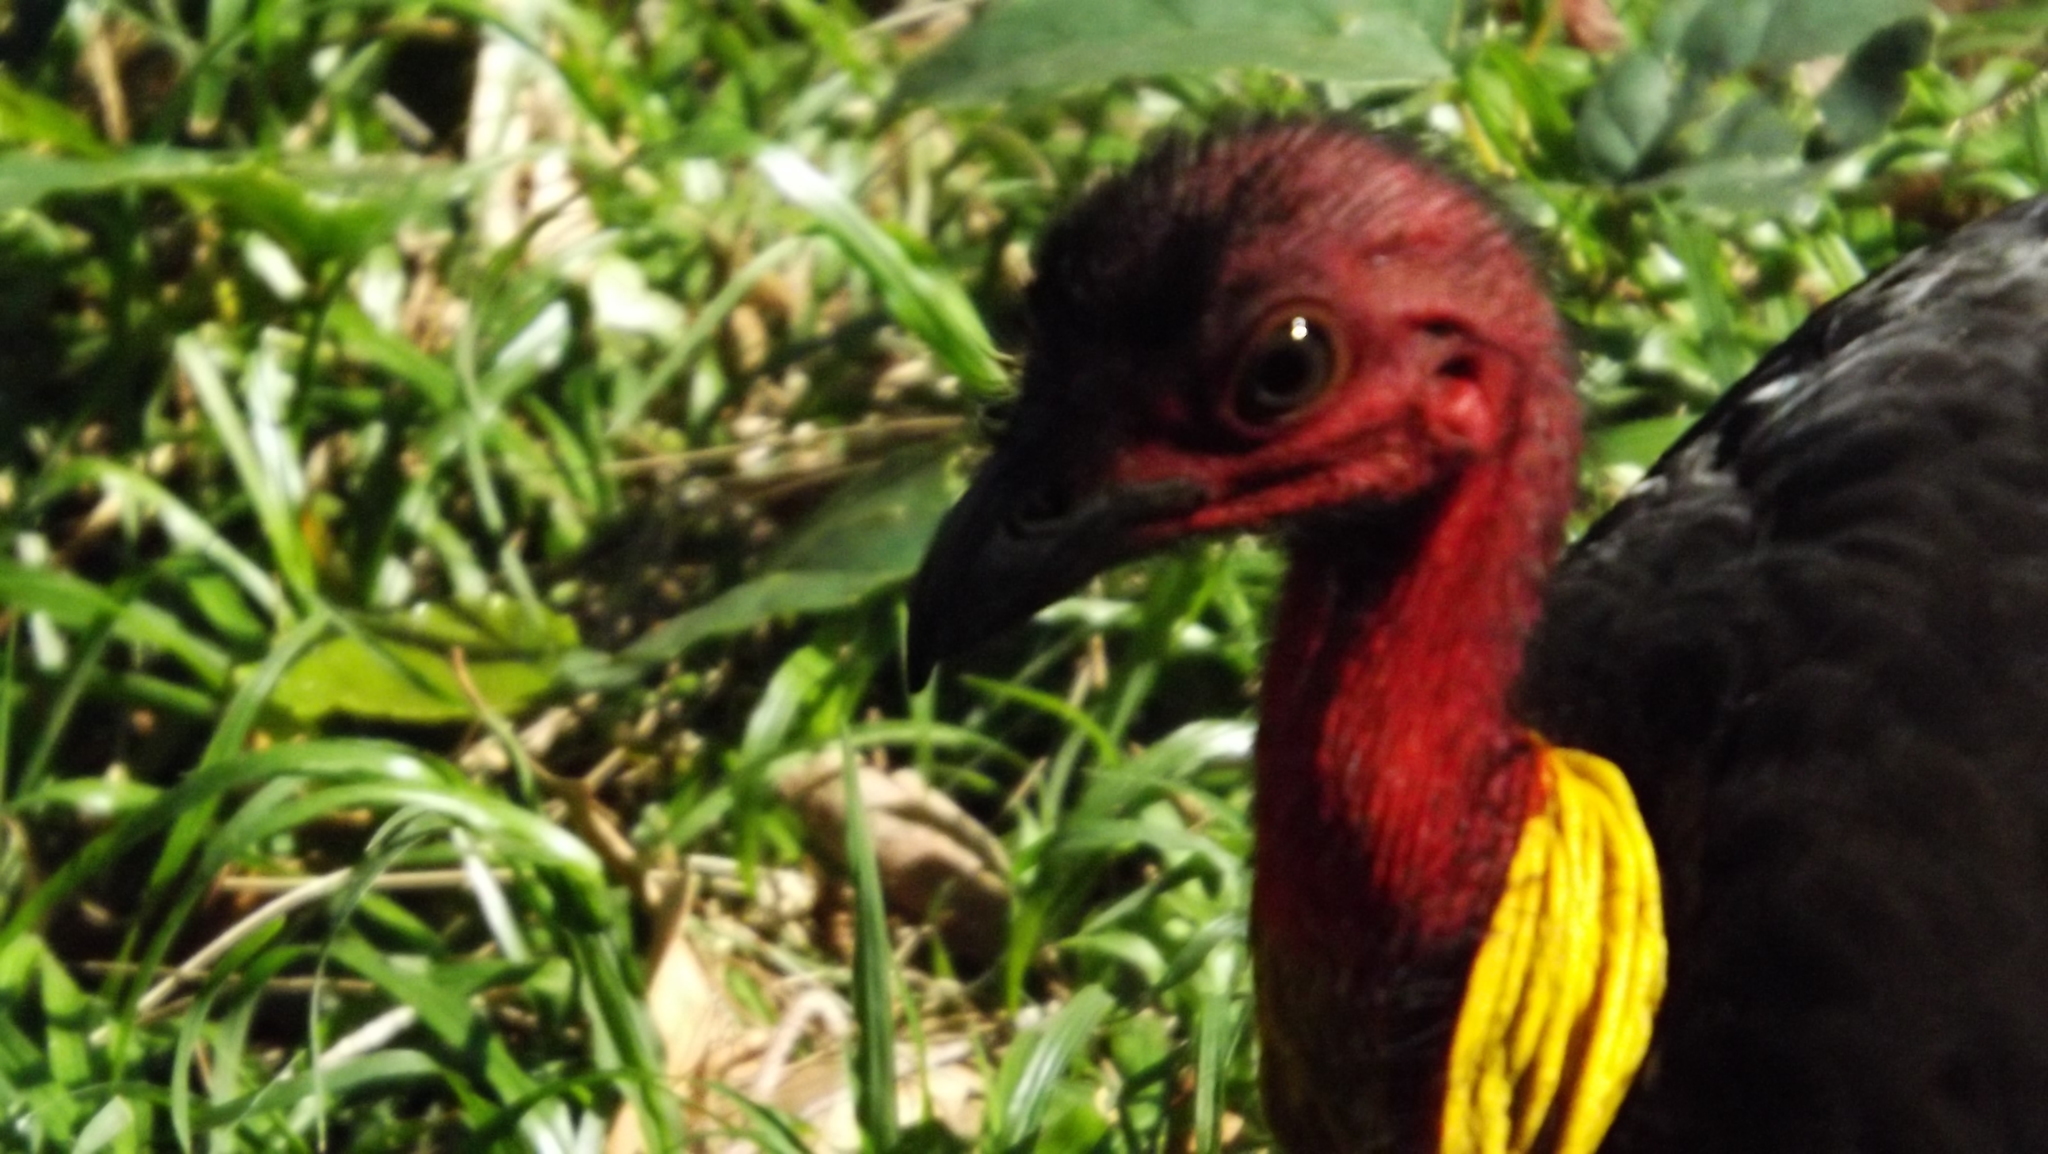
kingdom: Animalia
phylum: Chordata
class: Aves
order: Galliformes
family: Megapodiidae
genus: Alectura
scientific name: Alectura lathami
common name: Australian brushturkey
